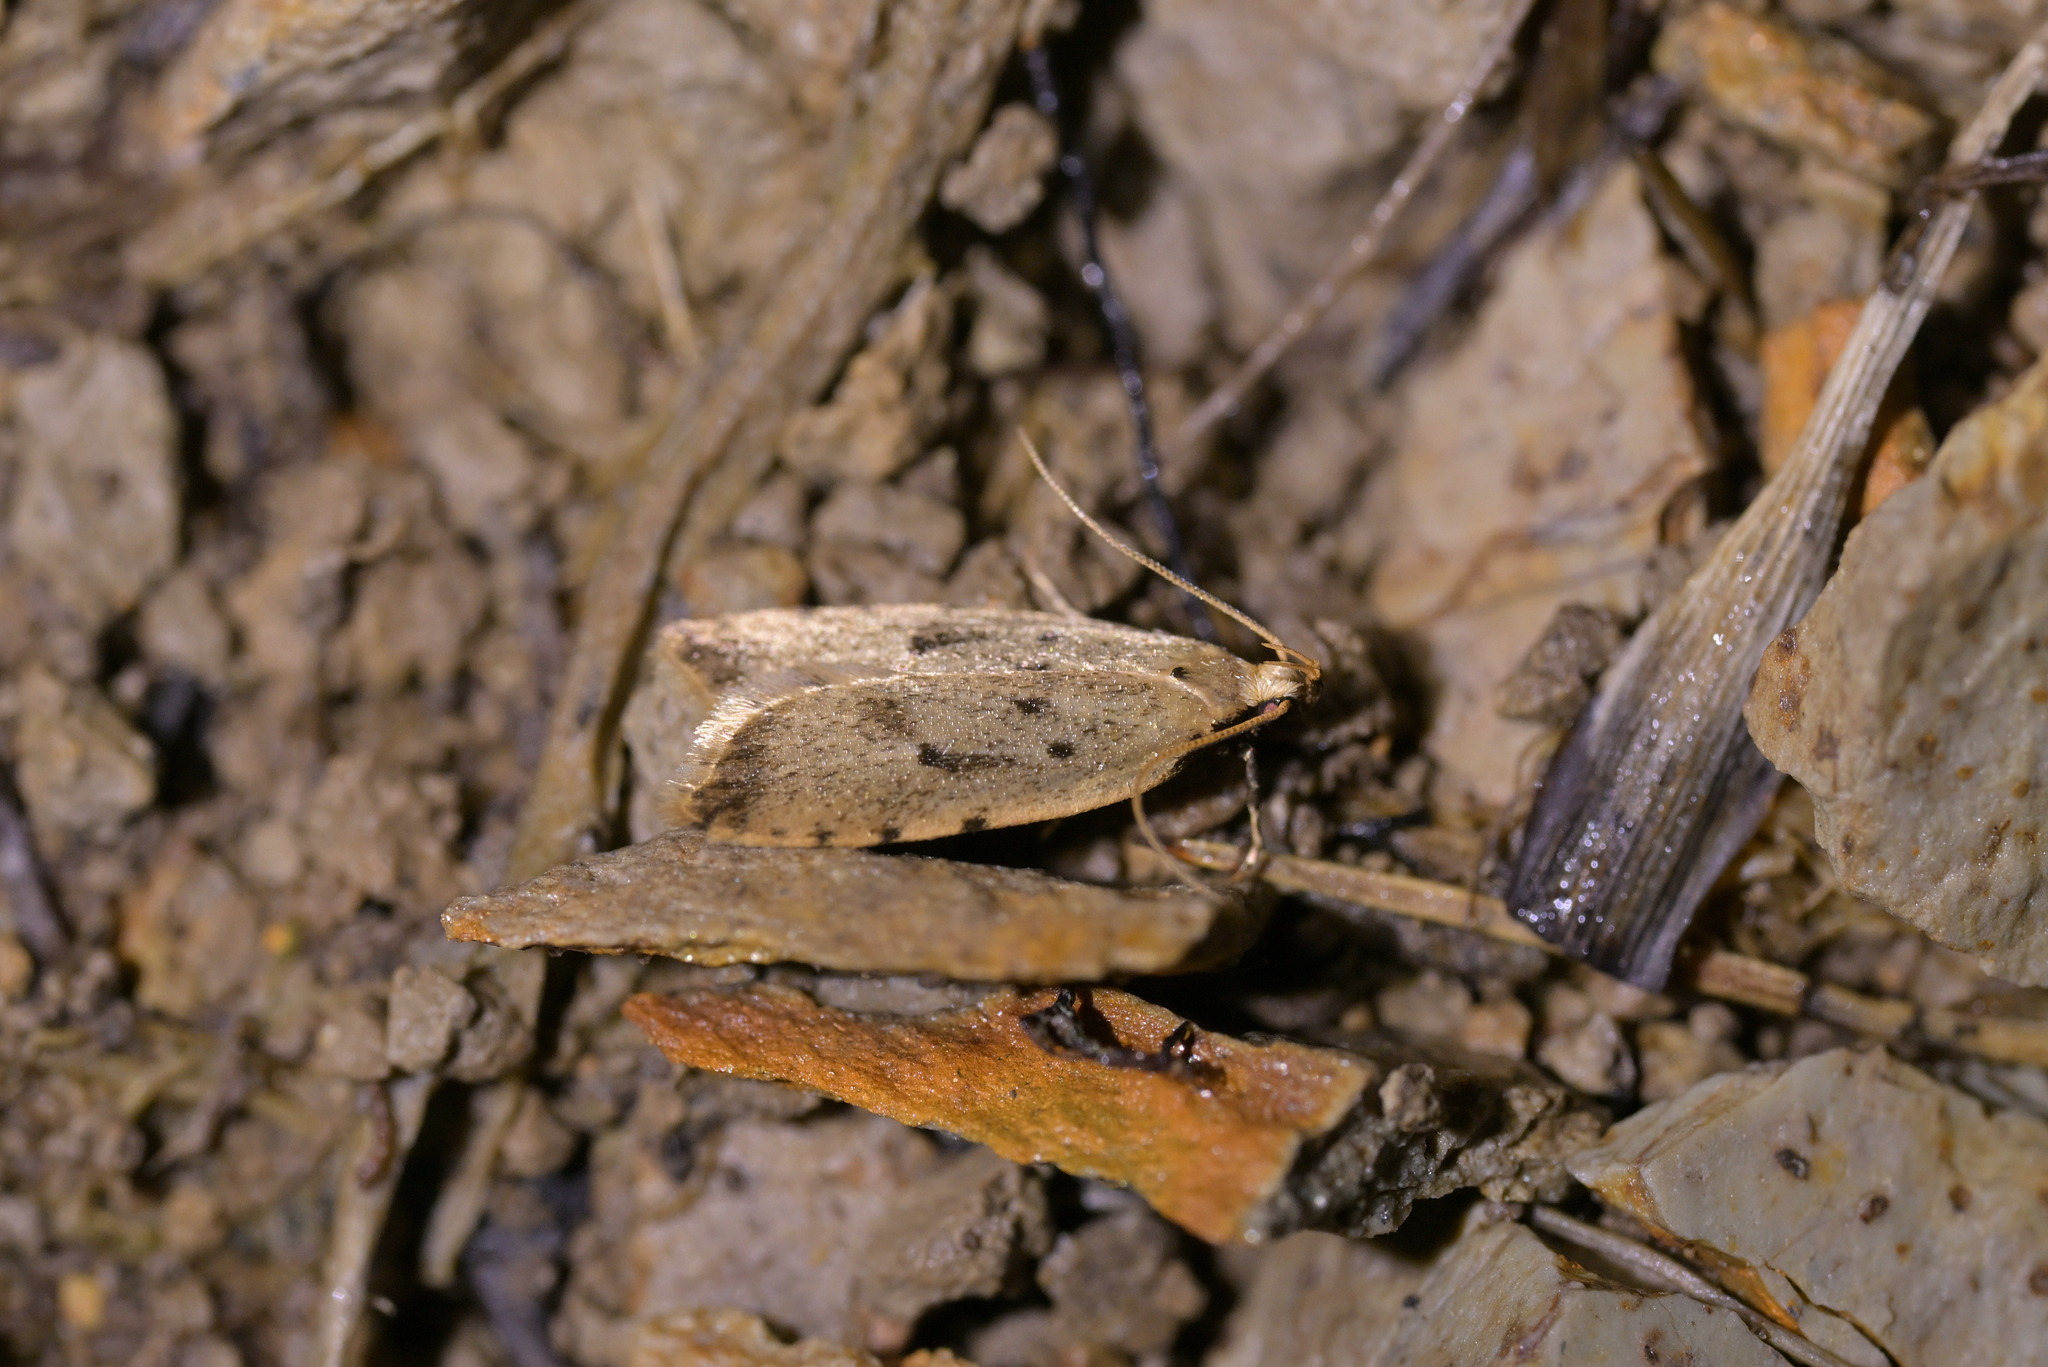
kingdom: Animalia
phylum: Arthropoda
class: Insecta
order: Lepidoptera
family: Oecophoridae
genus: Gymnobathra
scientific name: Gymnobathra calliploca
